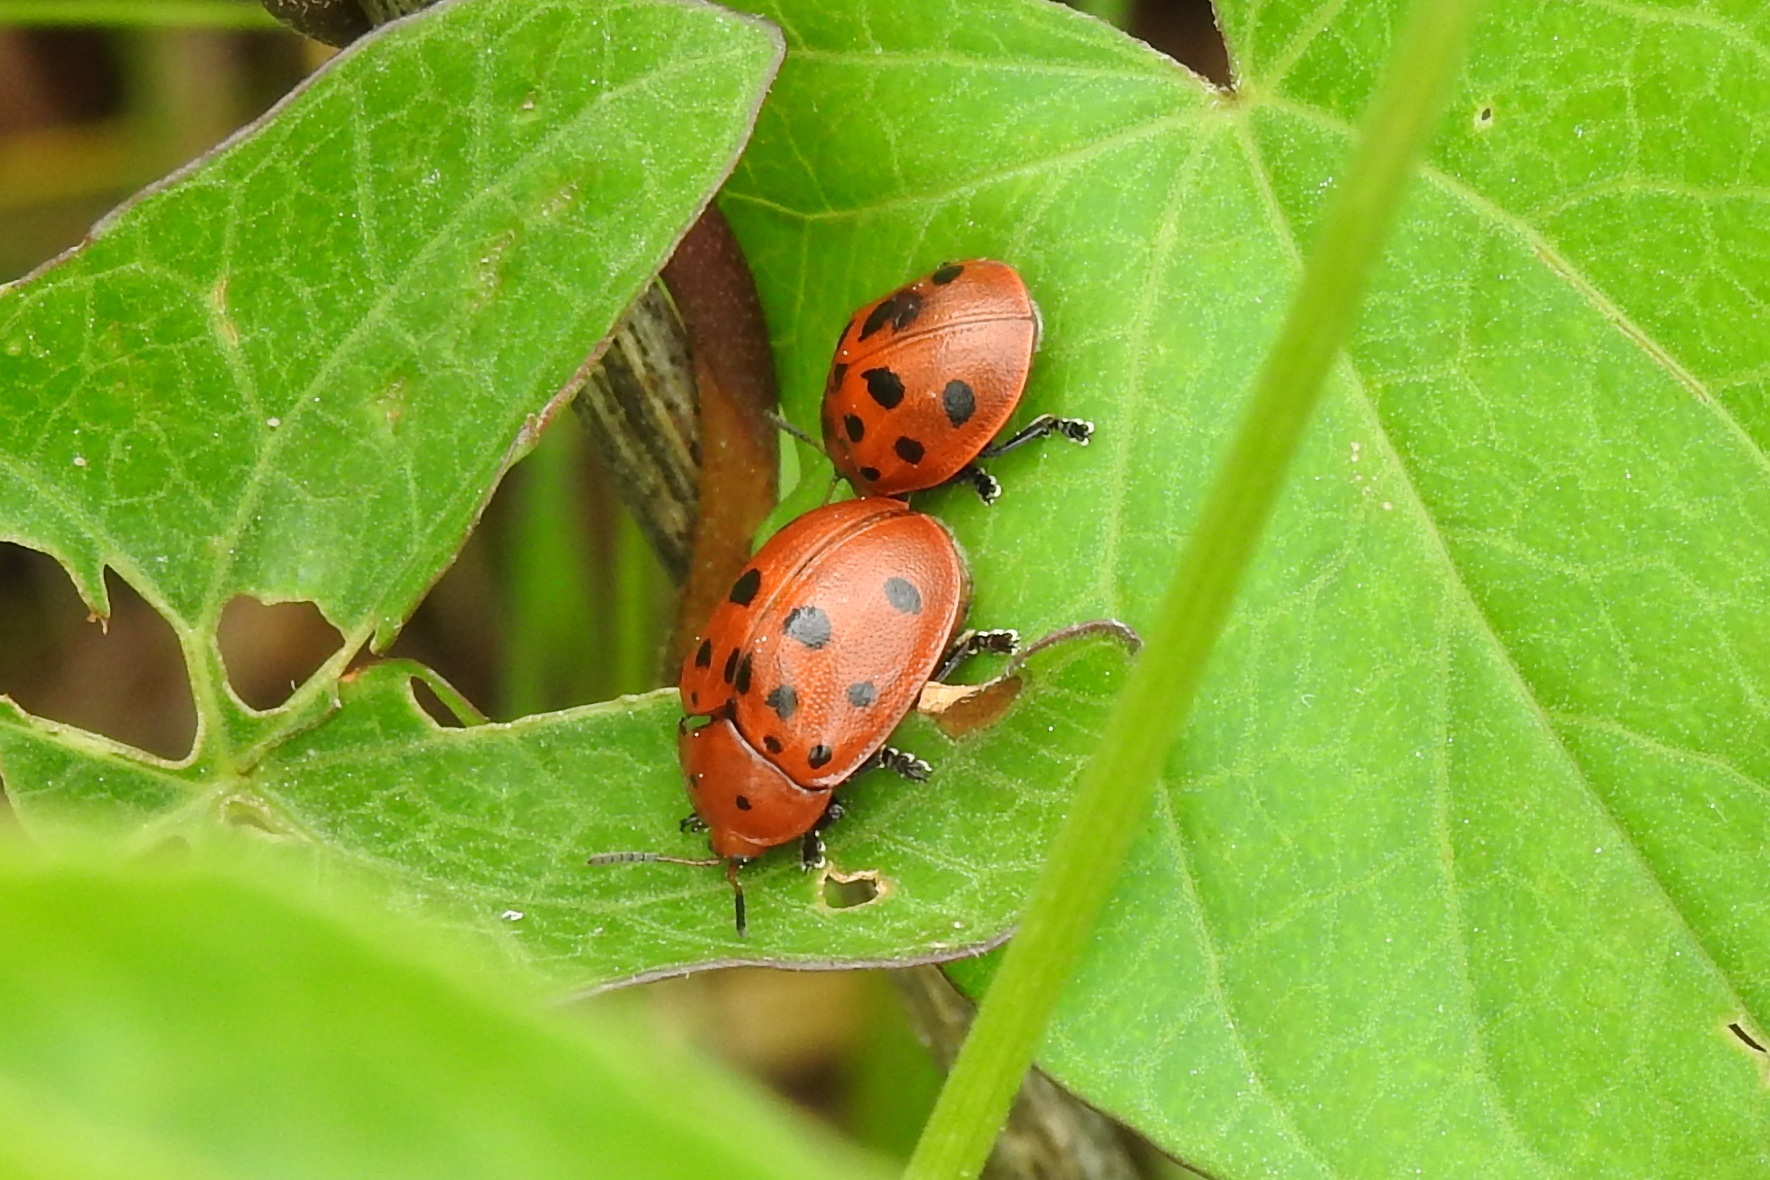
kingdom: Animalia
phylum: Arthropoda
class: Insecta
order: Coleoptera
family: Chrysomelidae
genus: Chelymorpha
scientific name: Chelymorpha cassidea
